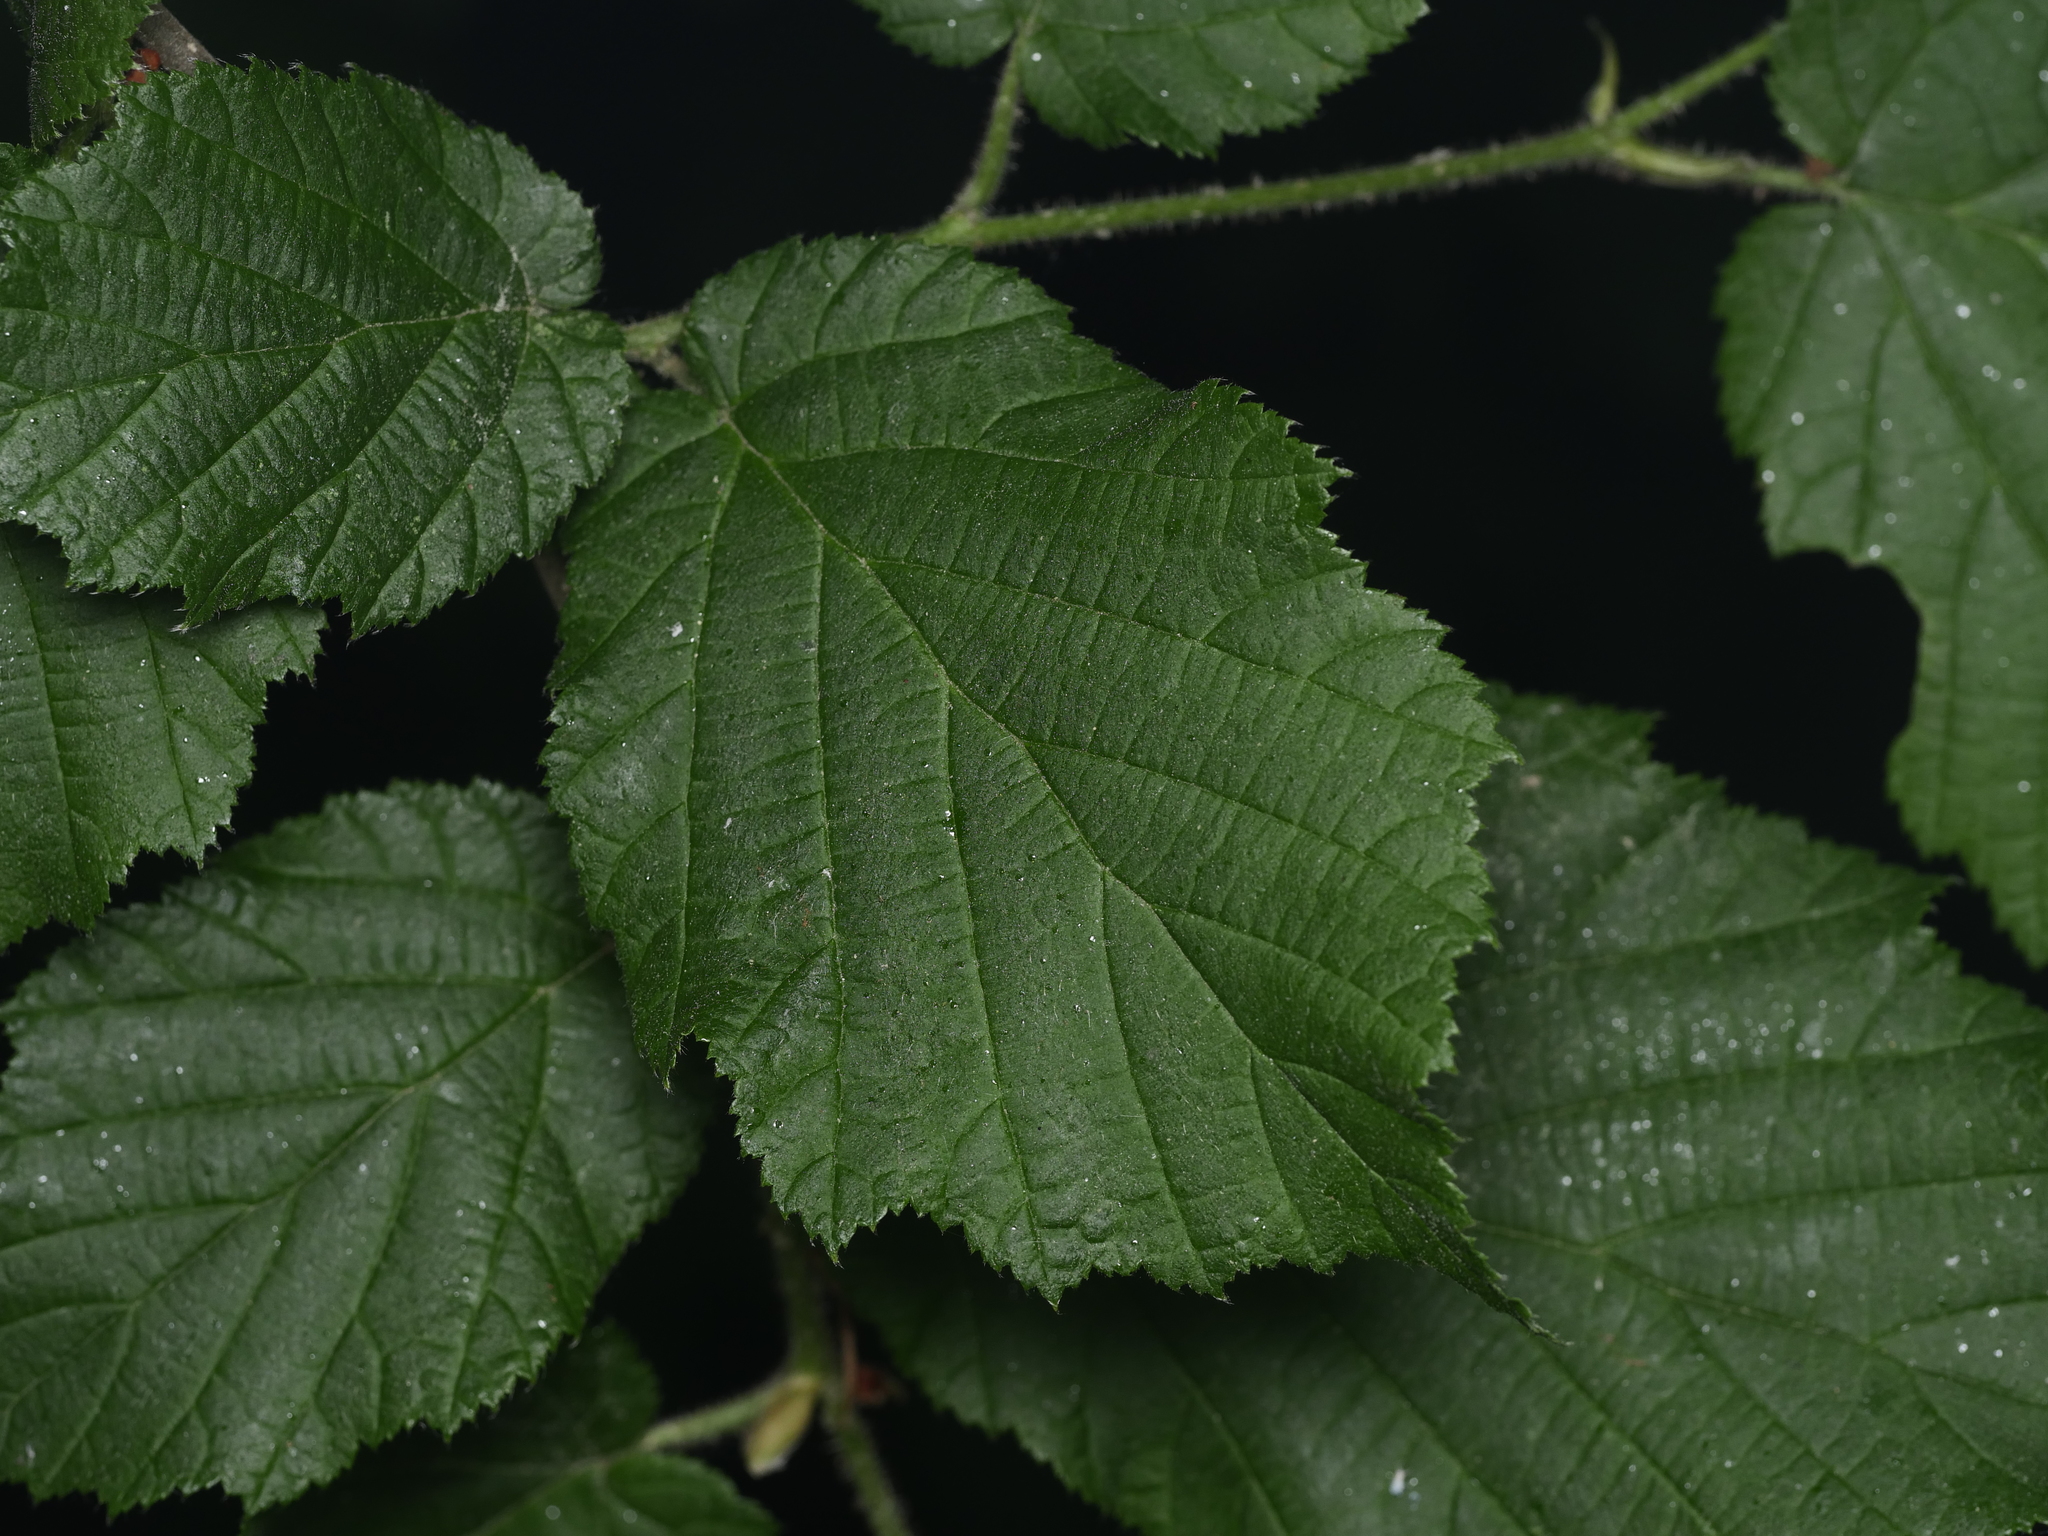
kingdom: Plantae
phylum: Tracheophyta
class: Magnoliopsida
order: Fagales
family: Betulaceae
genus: Corylus
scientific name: Corylus avellana
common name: European hazel
